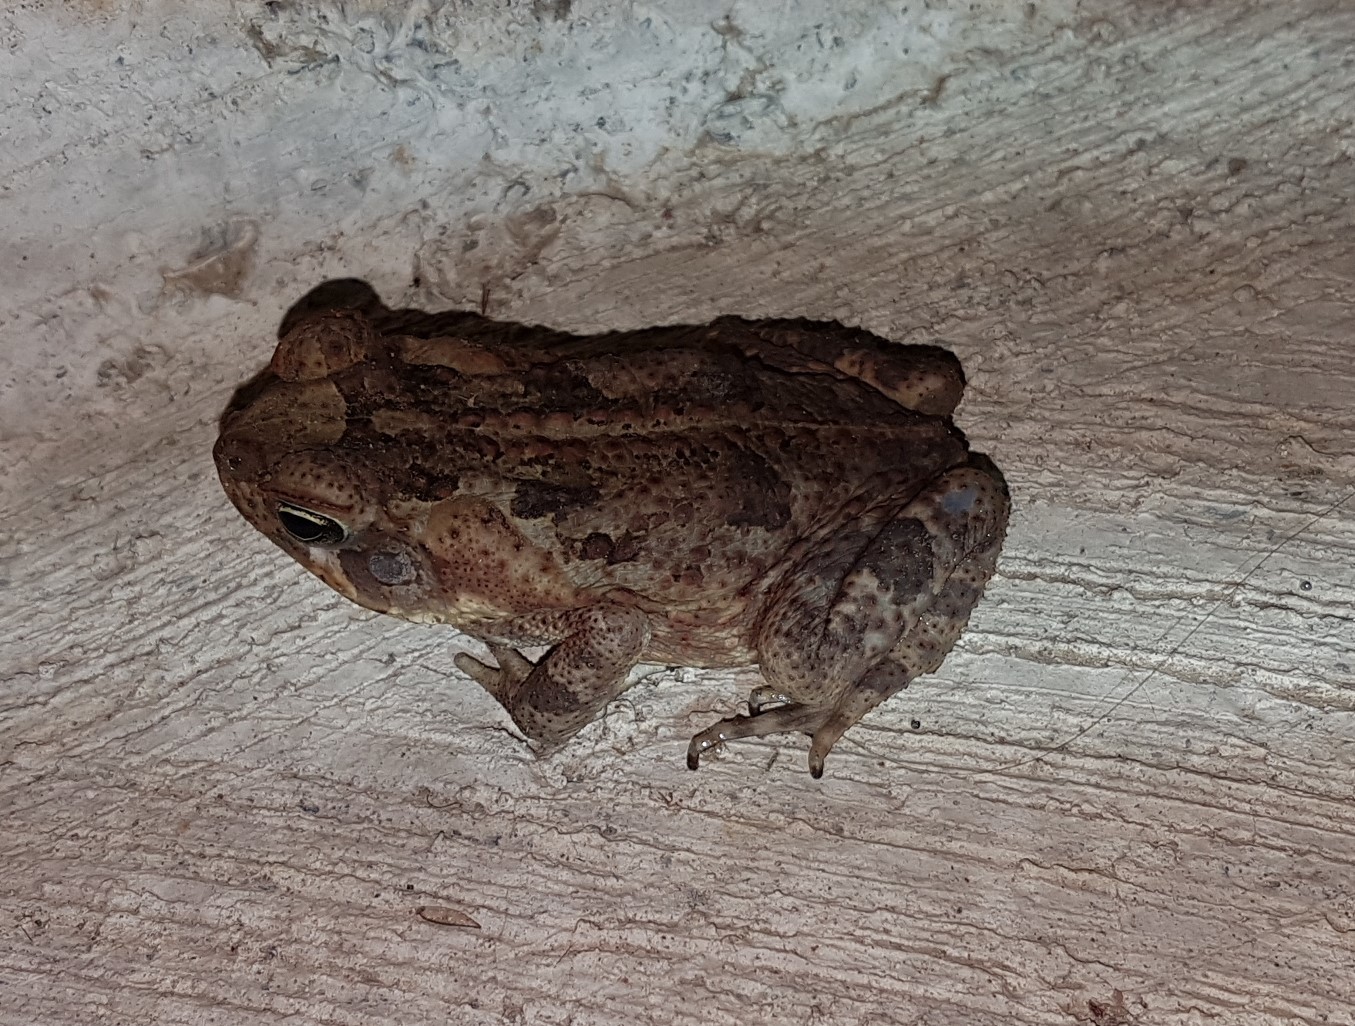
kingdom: Animalia
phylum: Chordata
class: Amphibia
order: Anura
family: Bufonidae
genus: Rhinella
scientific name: Rhinella horribilis
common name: Mesoamerican cane toad
